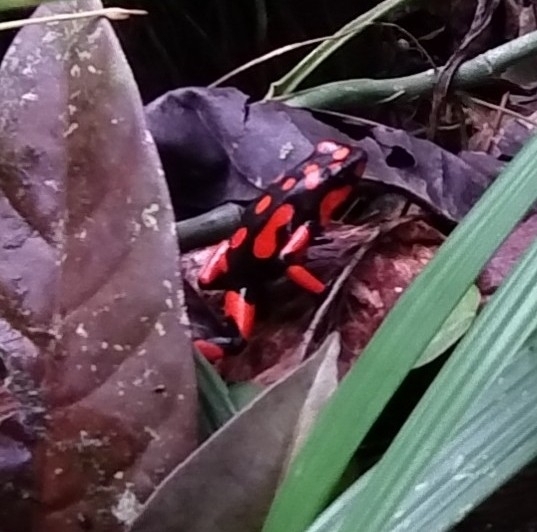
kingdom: Animalia
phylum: Chordata
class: Amphibia
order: Anura
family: Dendrobatidae
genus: Oophaga
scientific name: Oophaga solanensis
